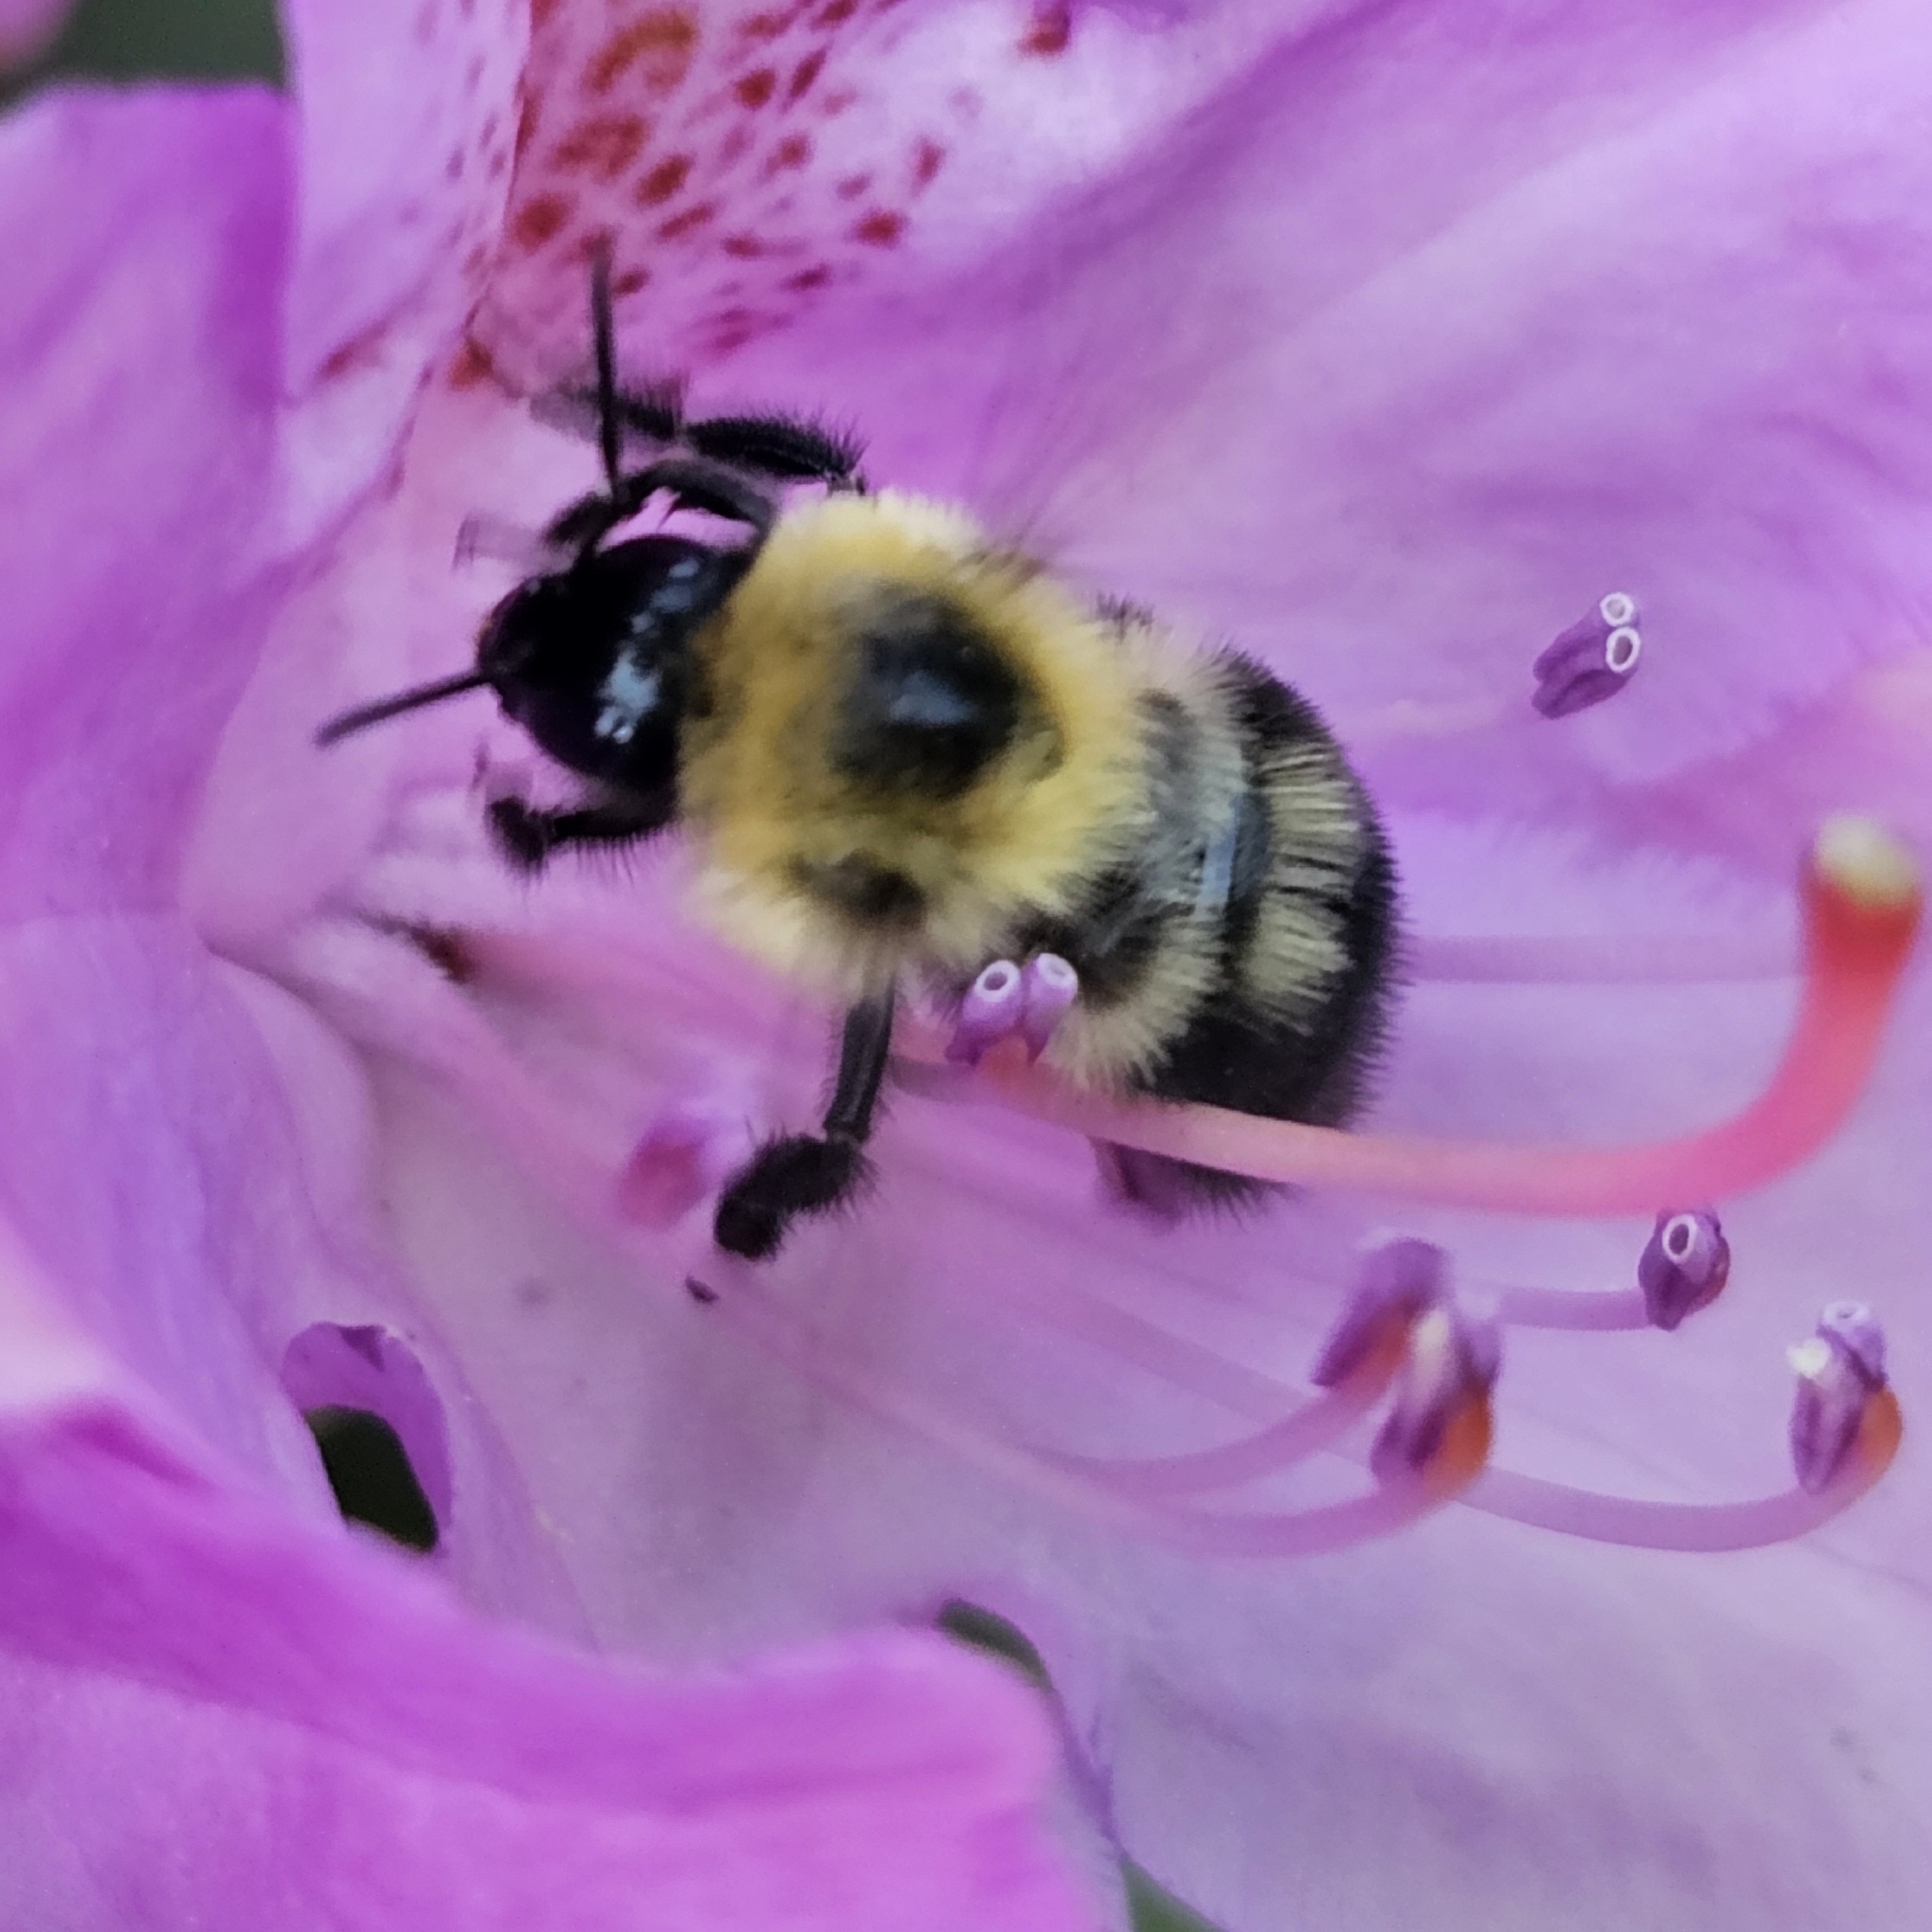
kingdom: Animalia
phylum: Arthropoda
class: Insecta
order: Hymenoptera
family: Apidae
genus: Bombus
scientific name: Bombus bimaculatus
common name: Two-spotted bumble bee
